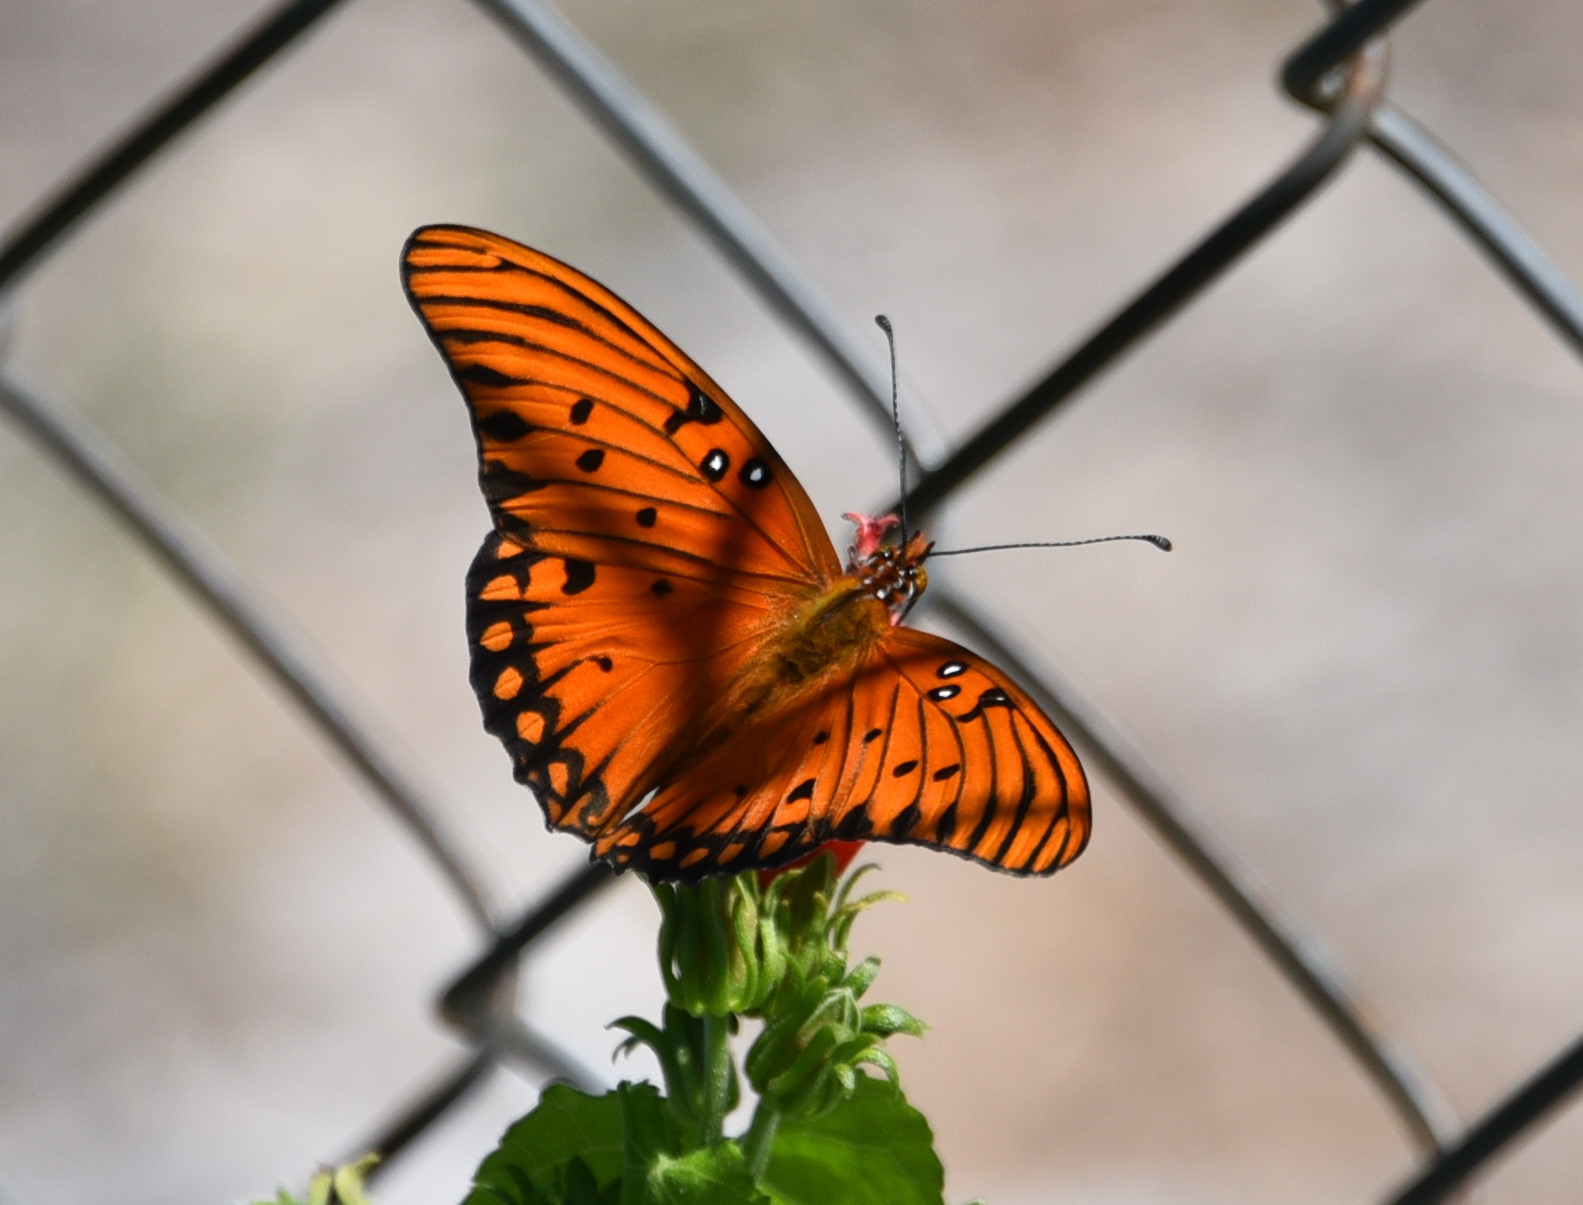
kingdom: Animalia
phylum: Arthropoda
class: Insecta
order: Lepidoptera
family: Nymphalidae
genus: Dione
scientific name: Dione vanillae
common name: Gulf fritillary
